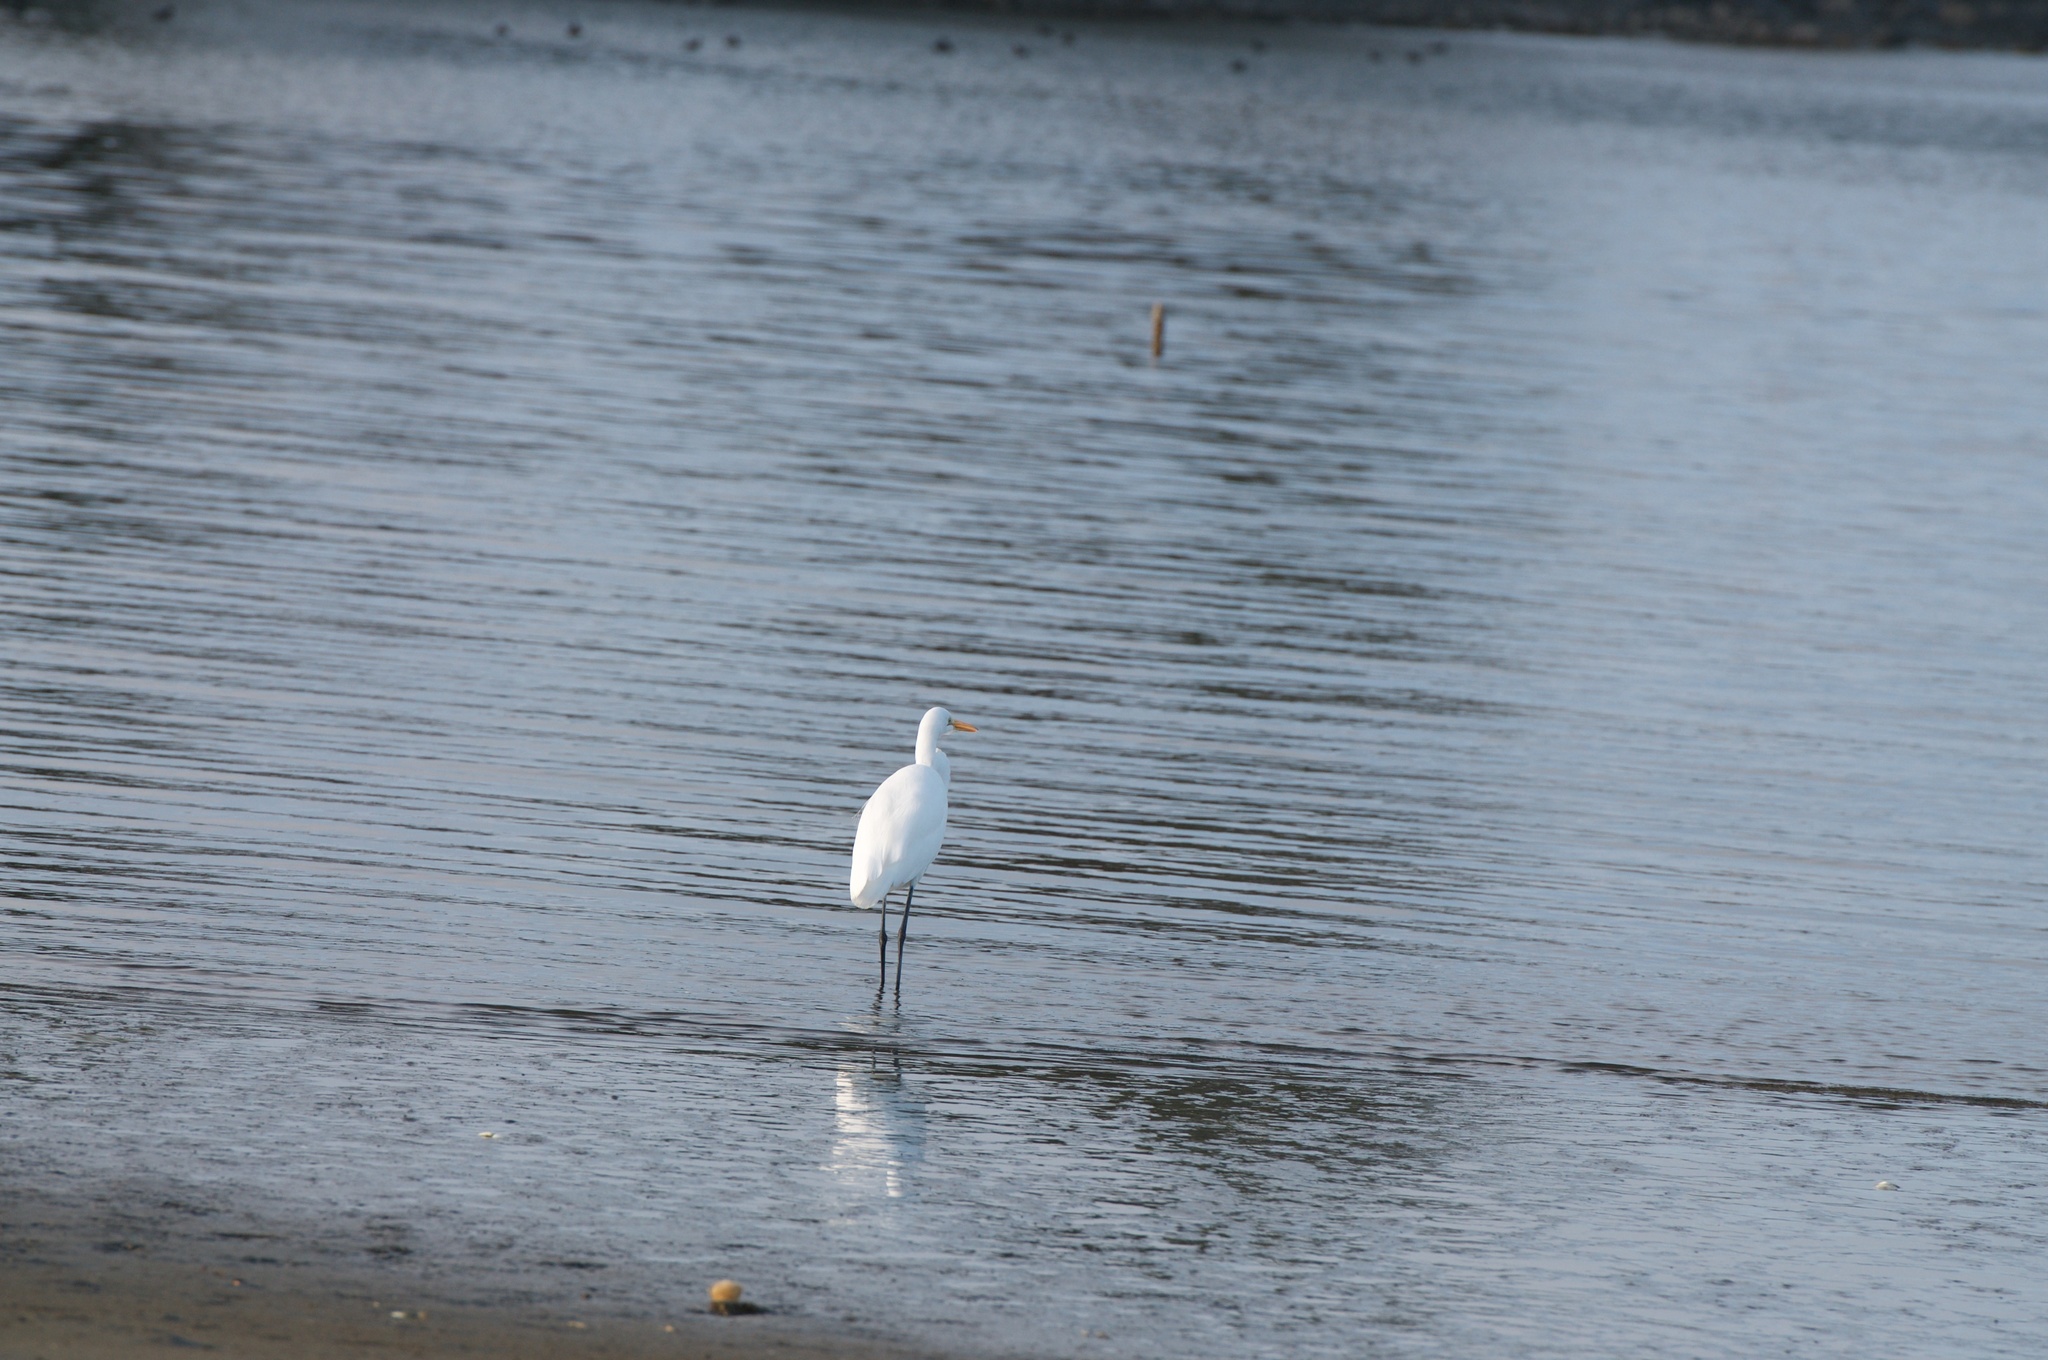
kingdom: Animalia
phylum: Chordata
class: Aves
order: Pelecaniformes
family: Ardeidae
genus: Ardea
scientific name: Ardea alba
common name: Great egret
